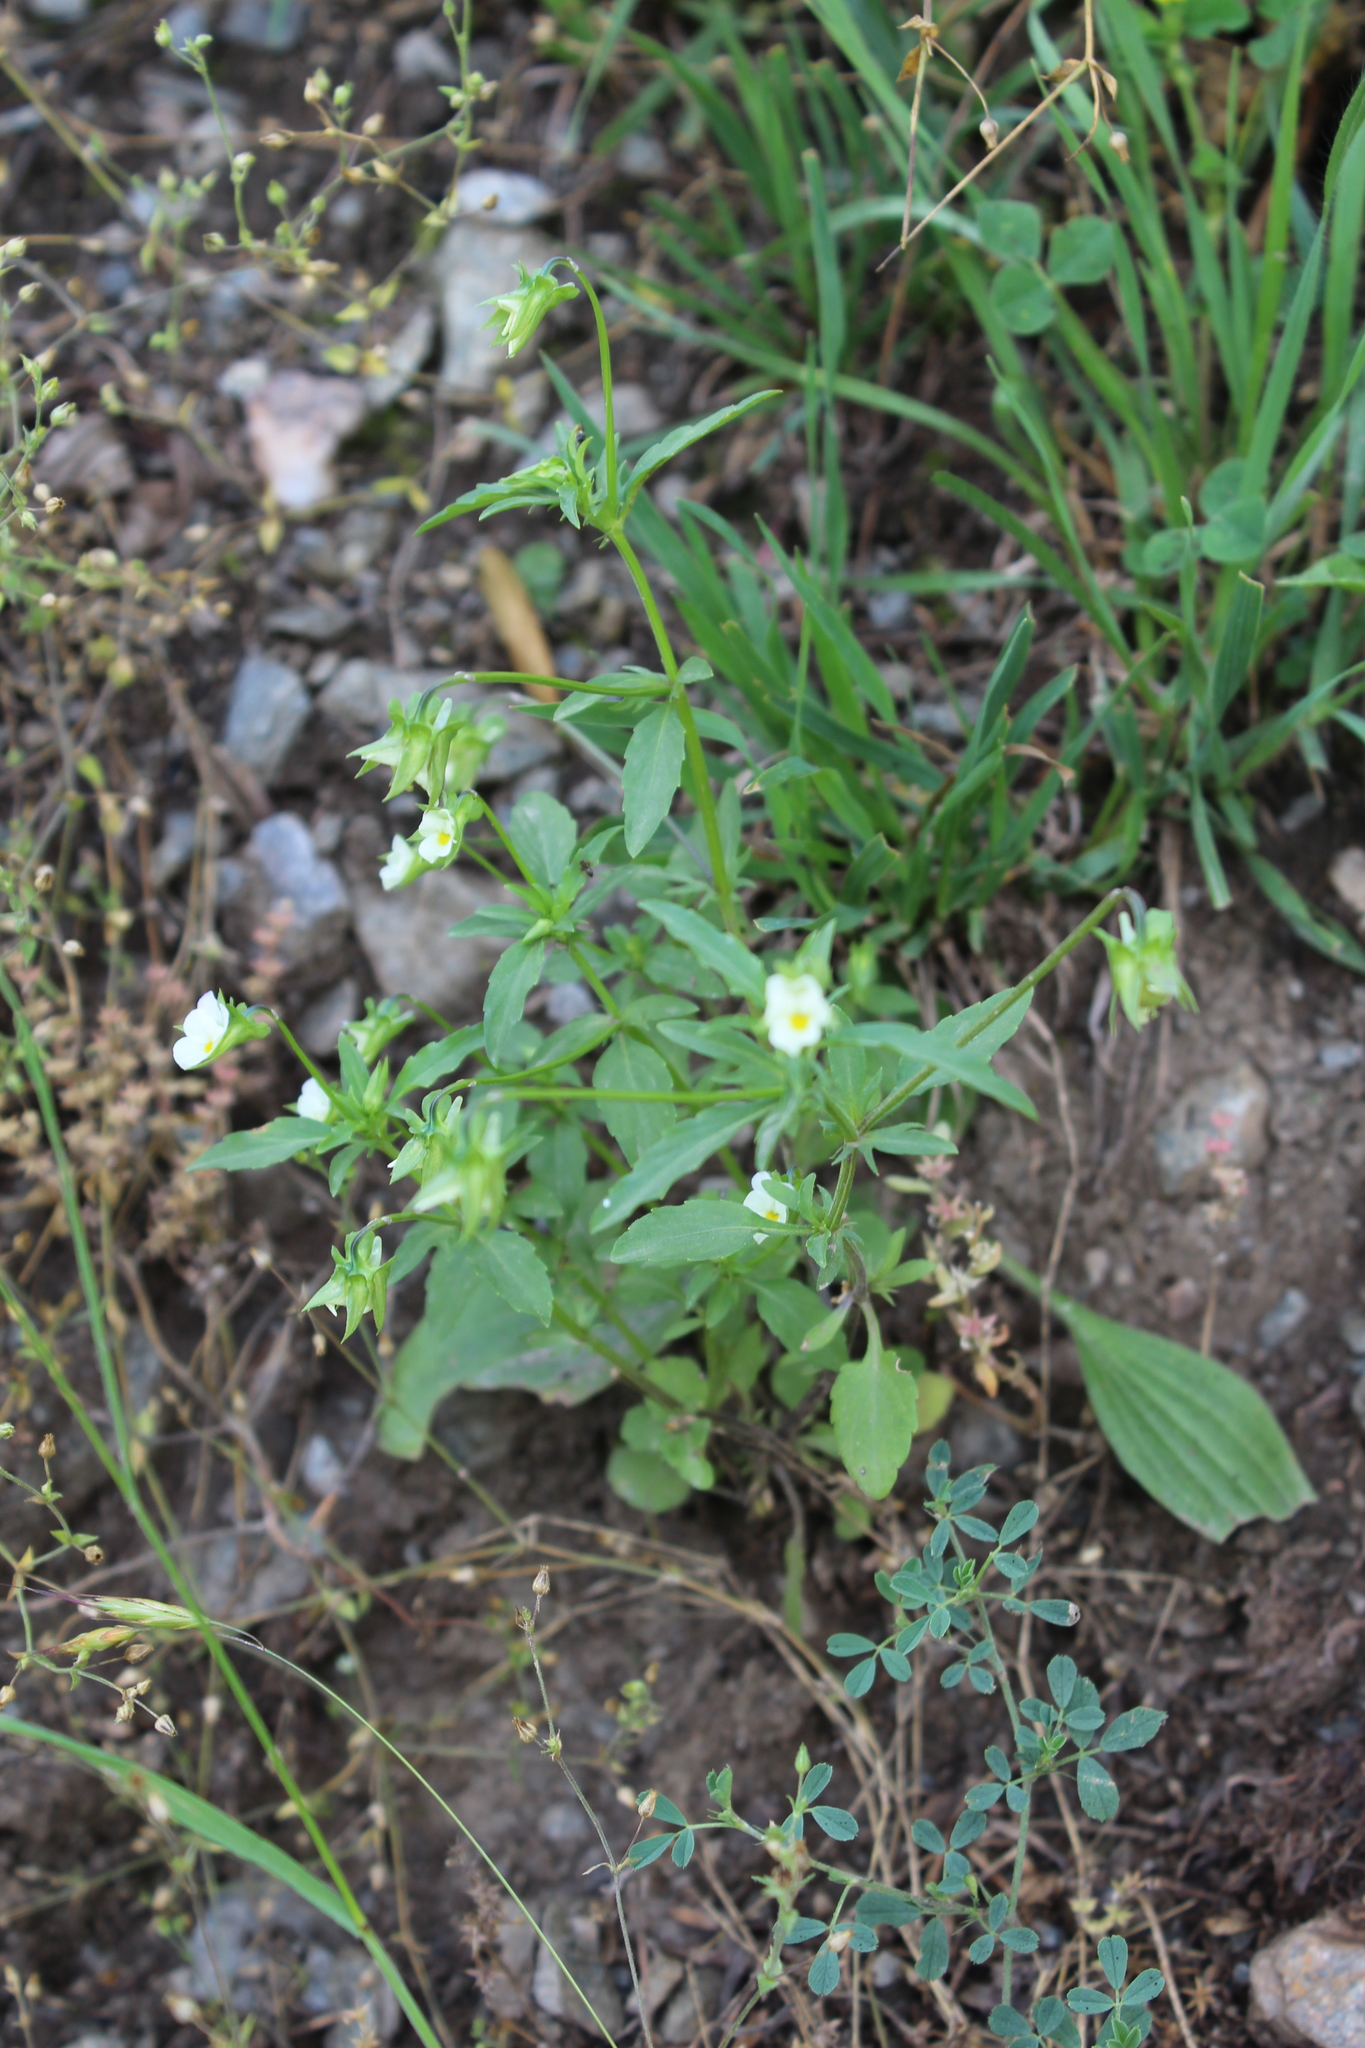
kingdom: Plantae
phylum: Tracheophyta
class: Magnoliopsida
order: Malpighiales
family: Violaceae
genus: Viola
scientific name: Viola arvensis
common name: Field pansy
